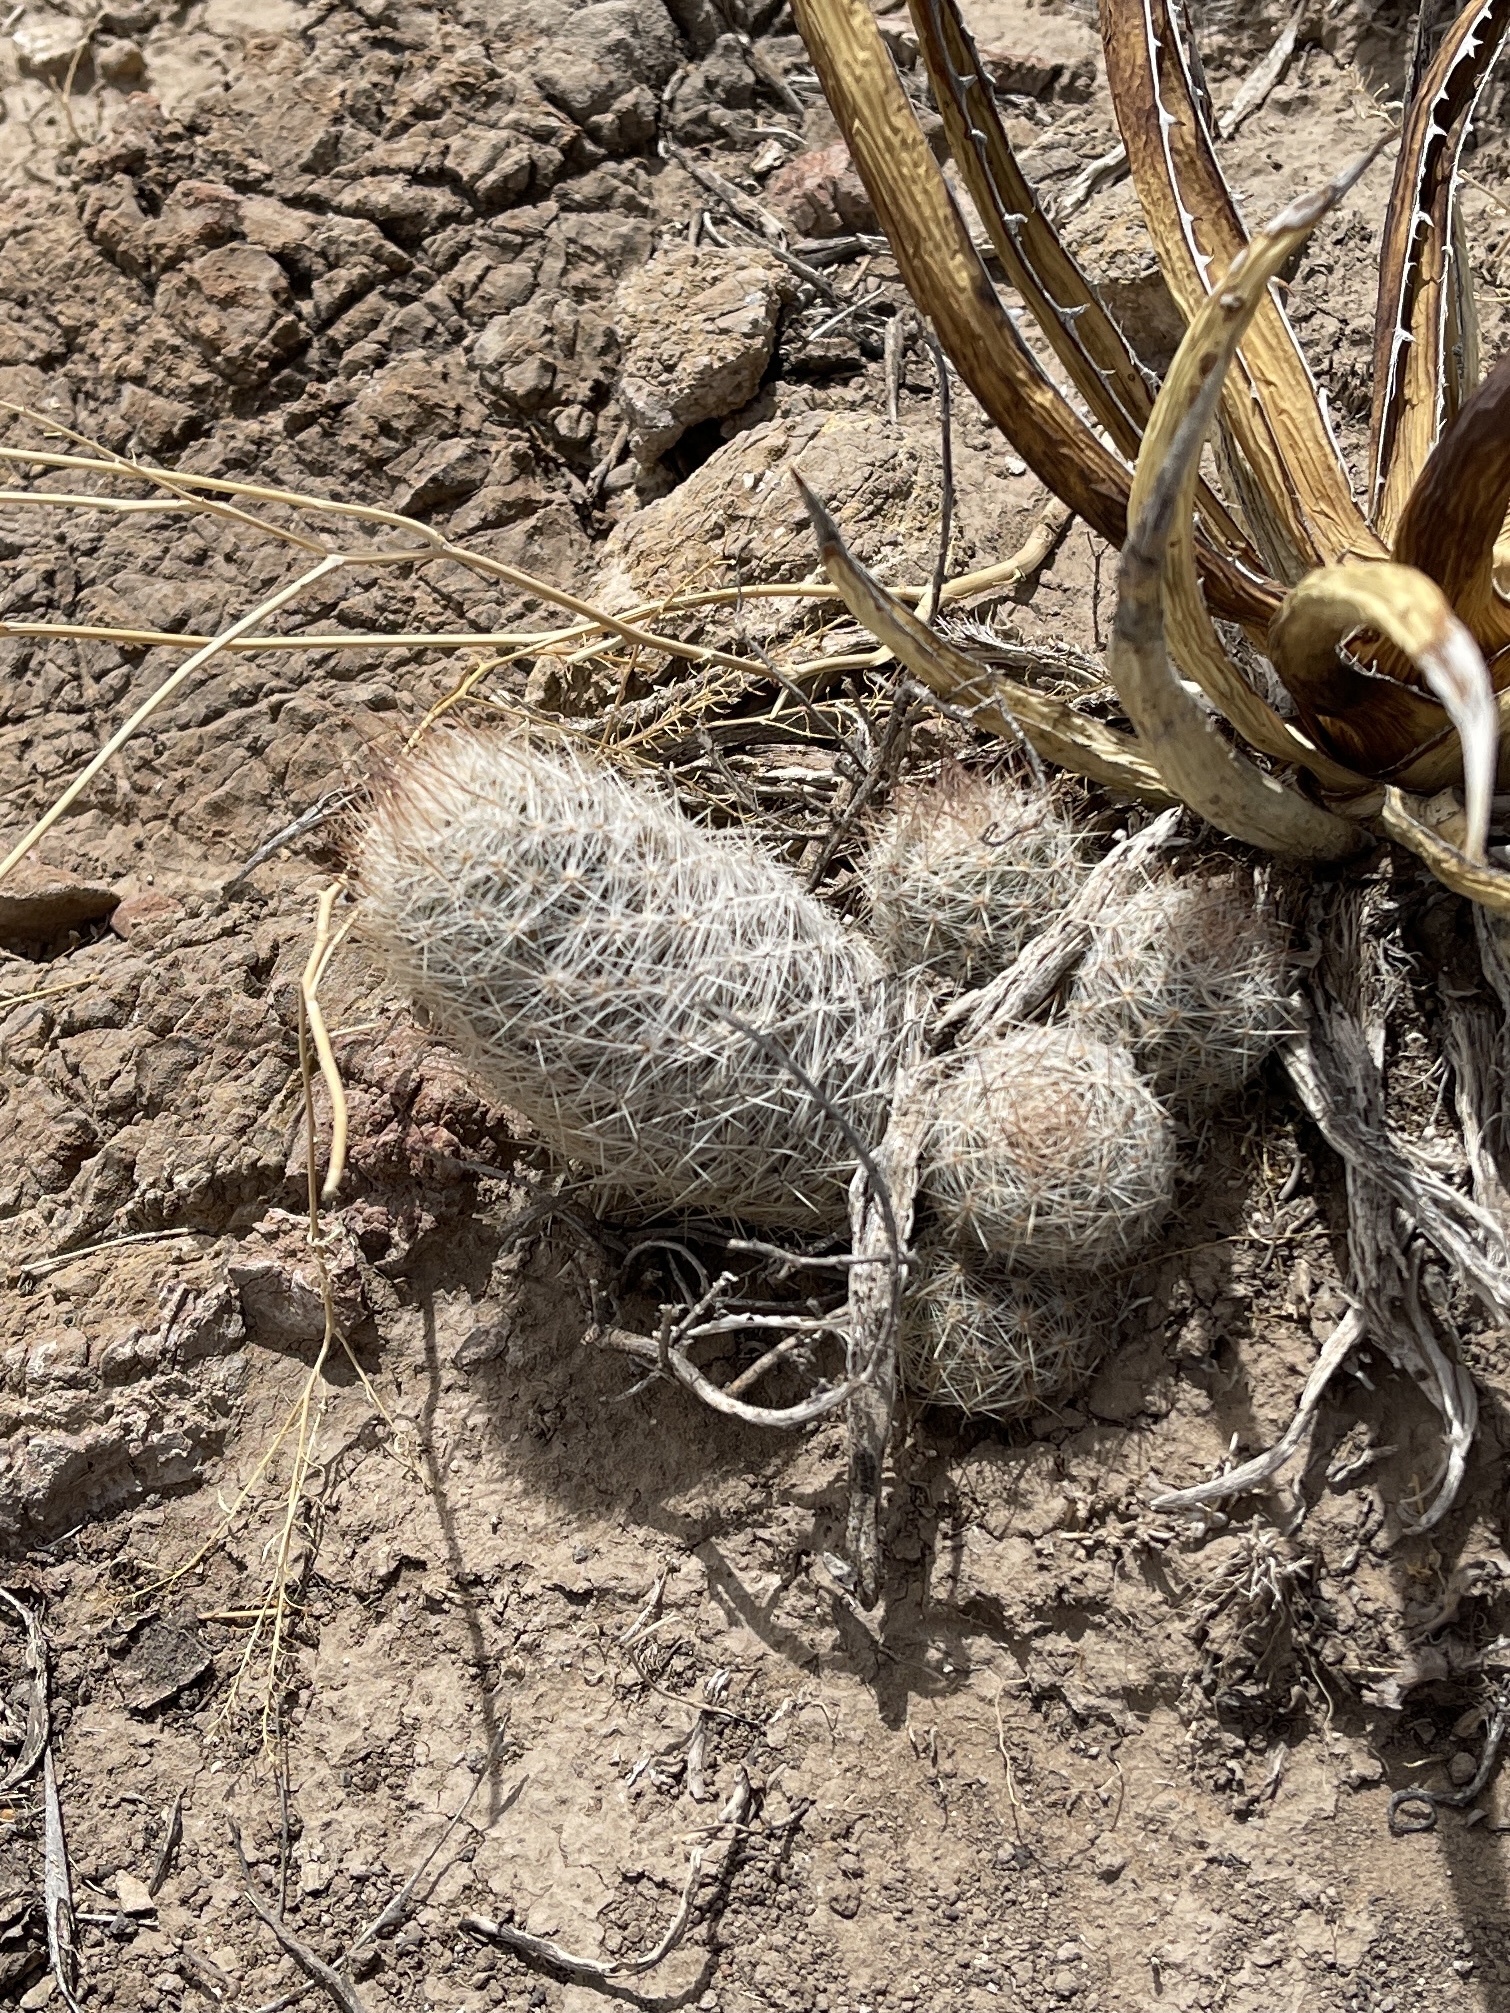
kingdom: Plantae
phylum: Tracheophyta
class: Magnoliopsida
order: Caryophyllales
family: Cactaceae
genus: Pelecyphora
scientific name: Pelecyphora tuberculosa
